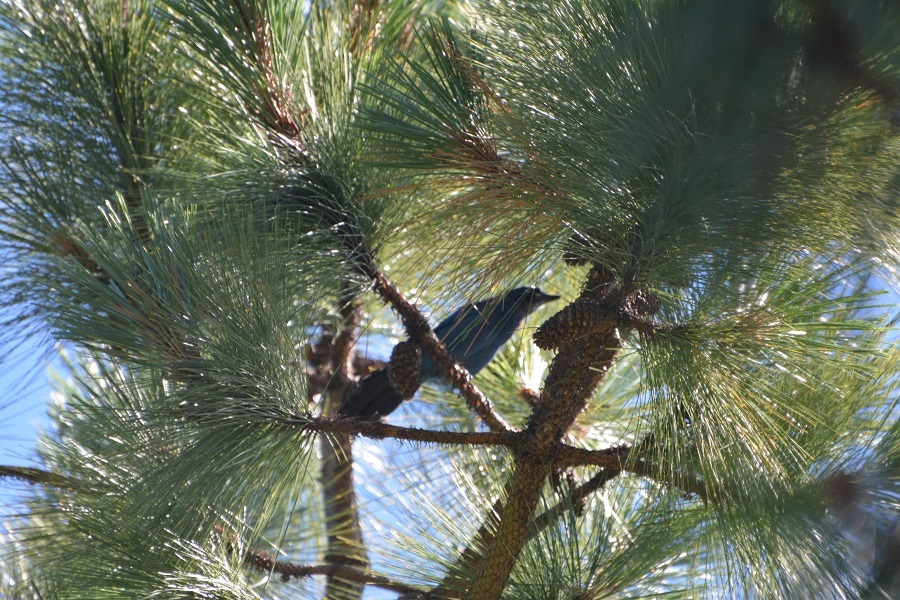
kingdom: Animalia
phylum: Chordata
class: Aves
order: Passeriformes
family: Corvidae
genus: Cyanocitta
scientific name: Cyanocitta stelleri
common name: Steller's jay
